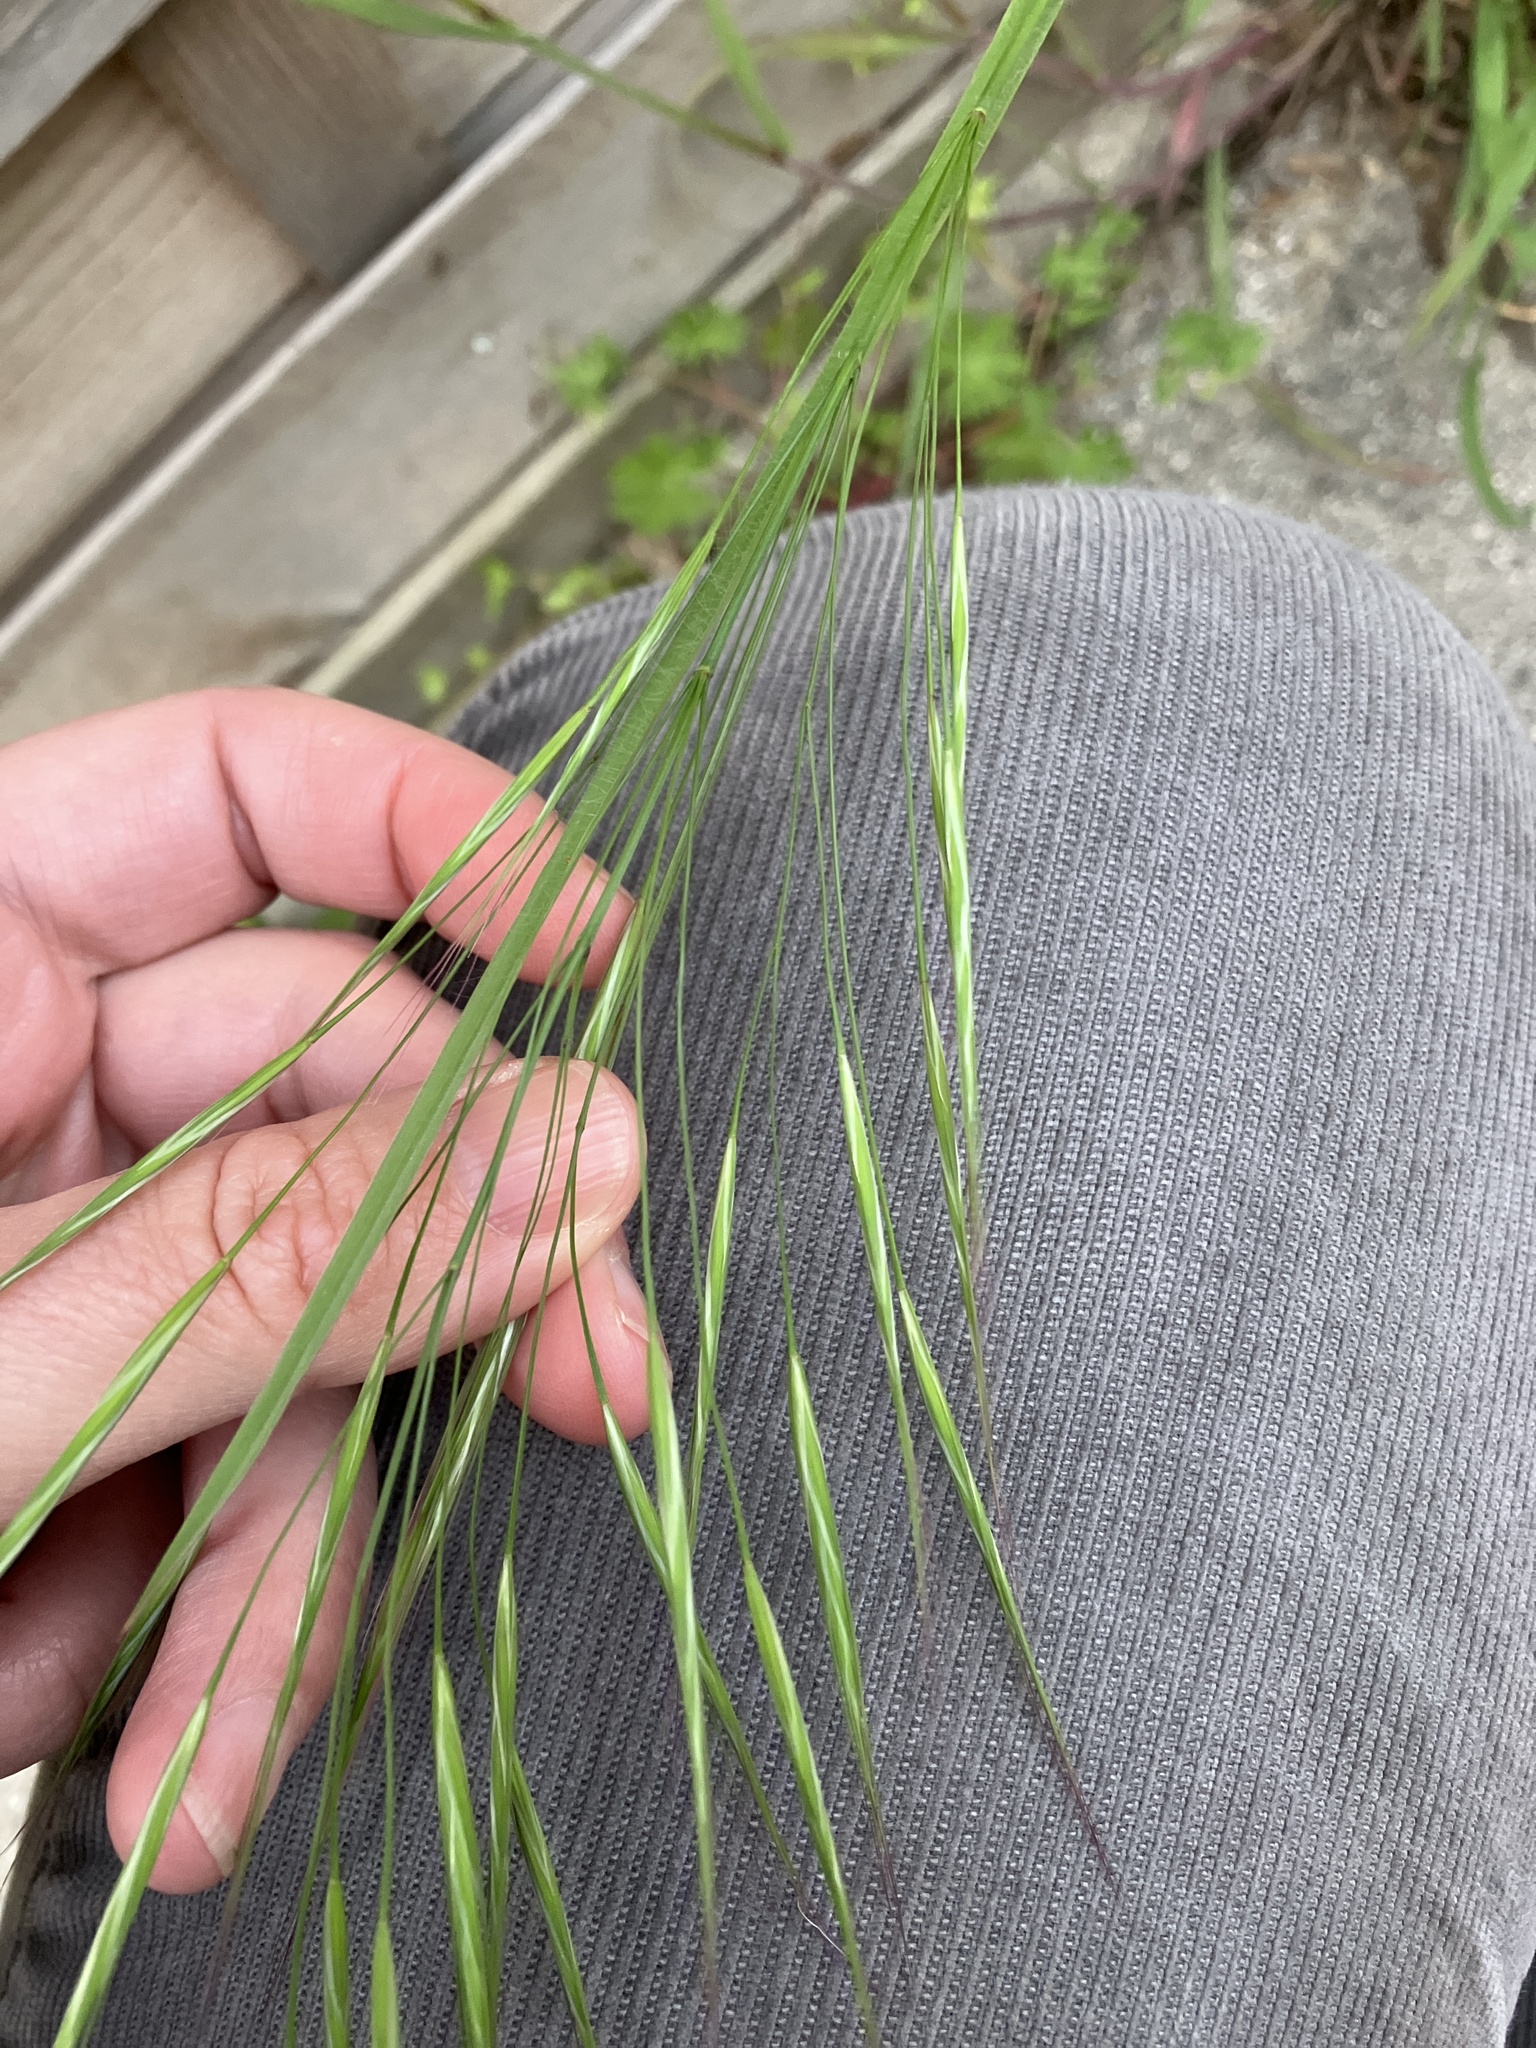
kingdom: Plantae
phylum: Tracheophyta
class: Liliopsida
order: Poales
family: Poaceae
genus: Bromus
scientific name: Bromus sterilis
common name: Poverty brome
